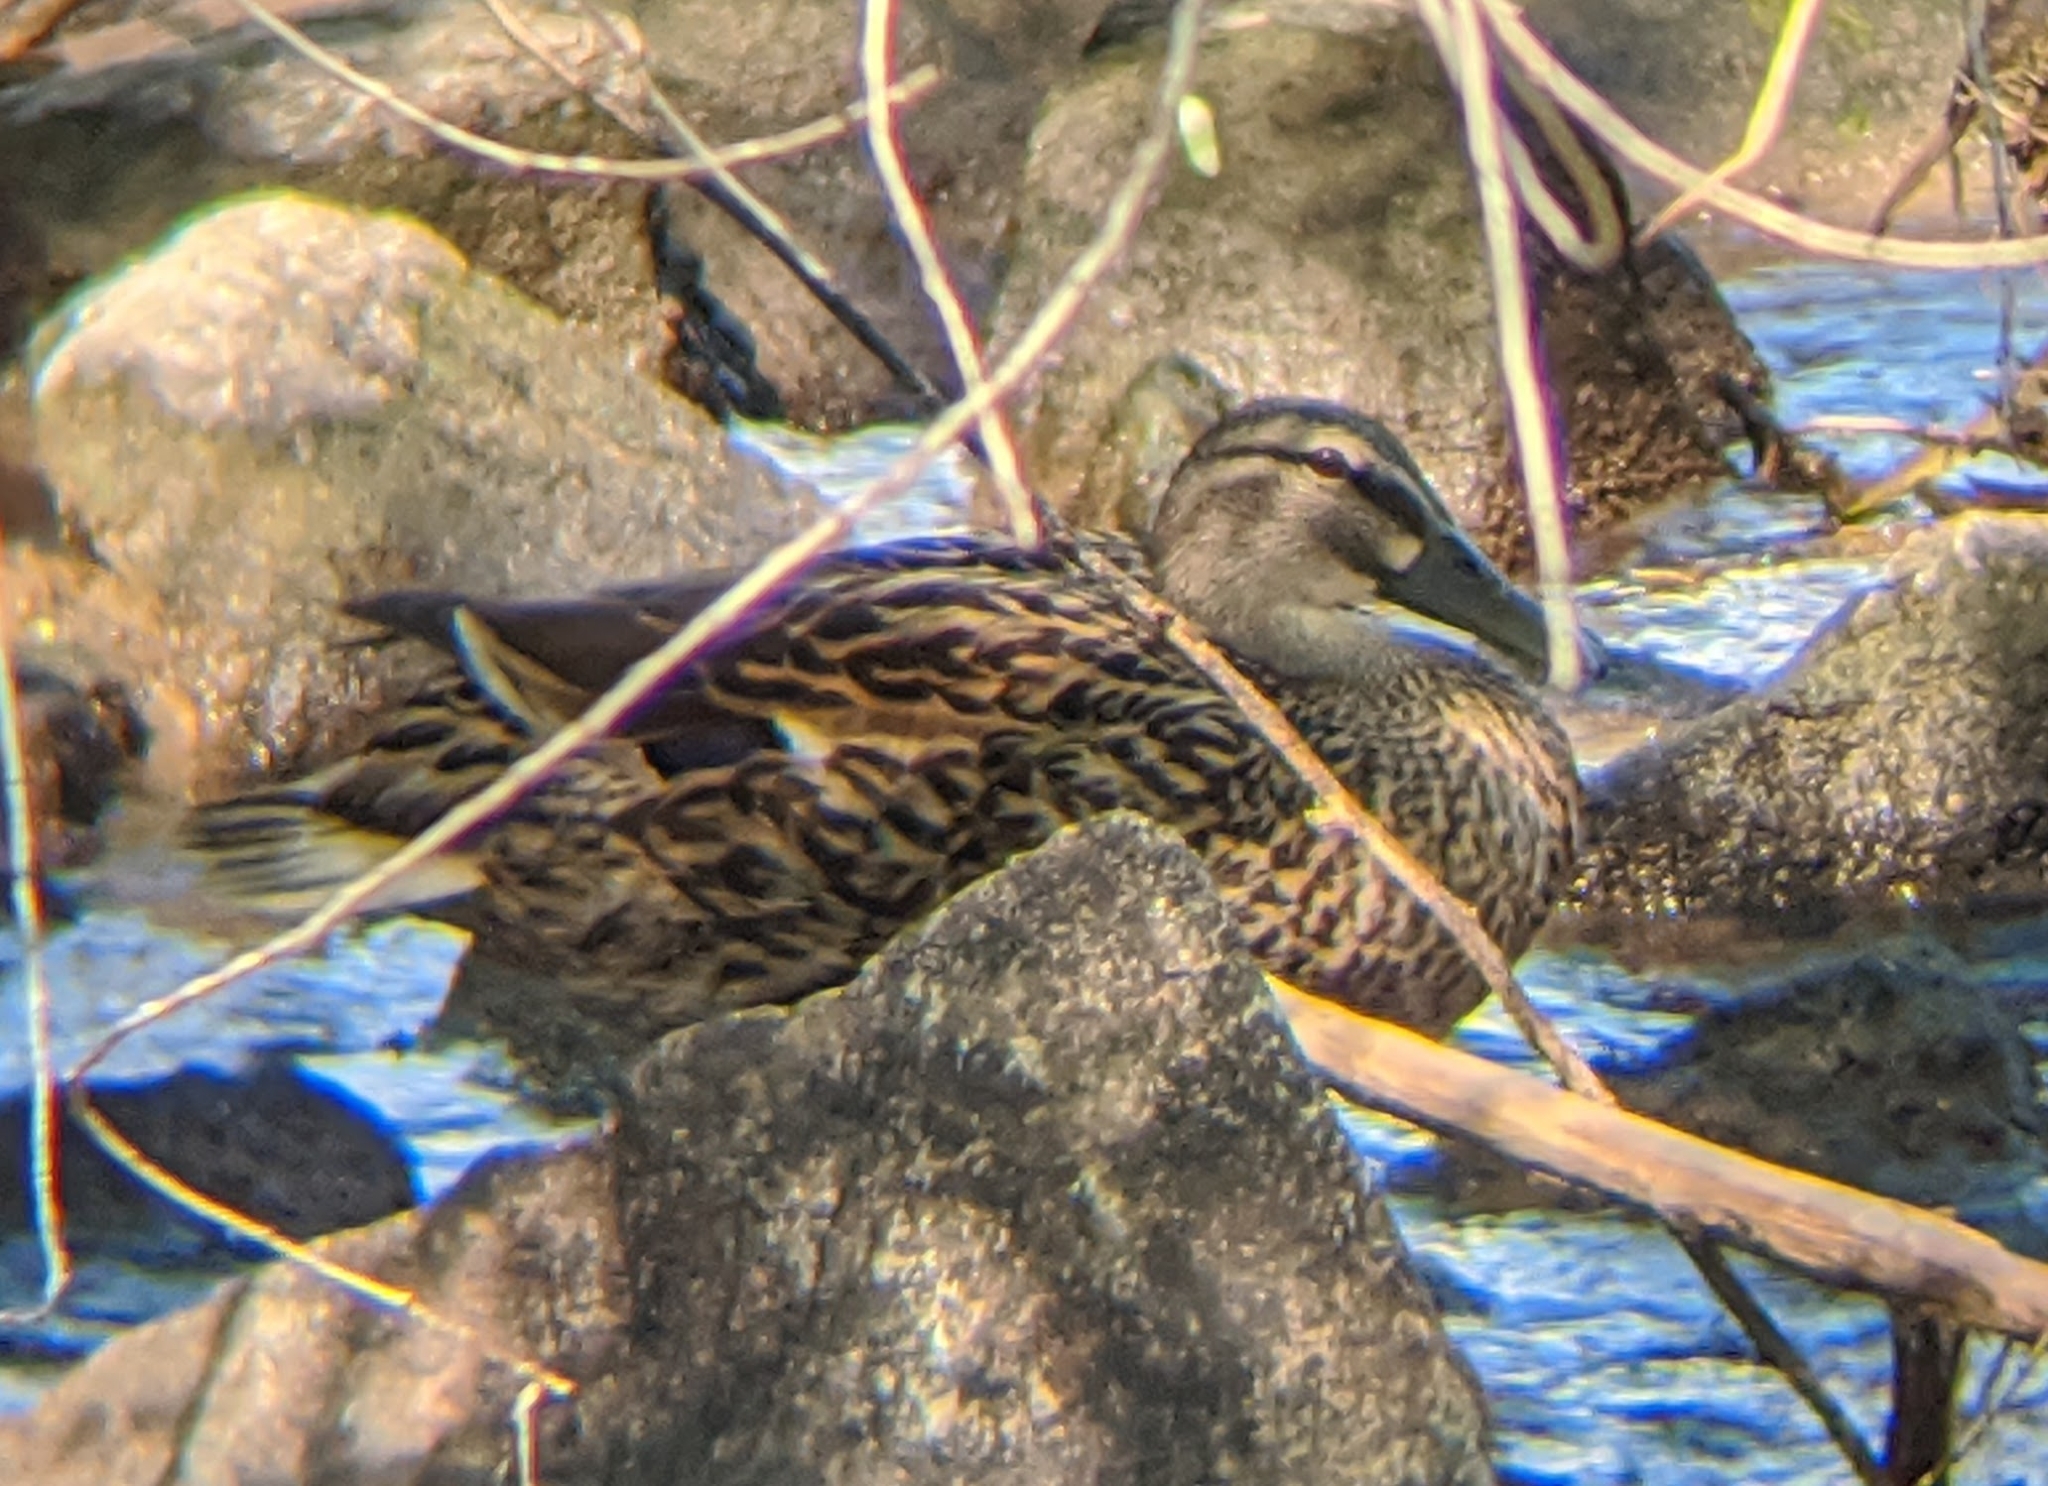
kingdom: Animalia
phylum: Chordata
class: Aves
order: Anseriformes
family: Anatidae
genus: Anas
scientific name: Anas platyrhynchos
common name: Mallard
